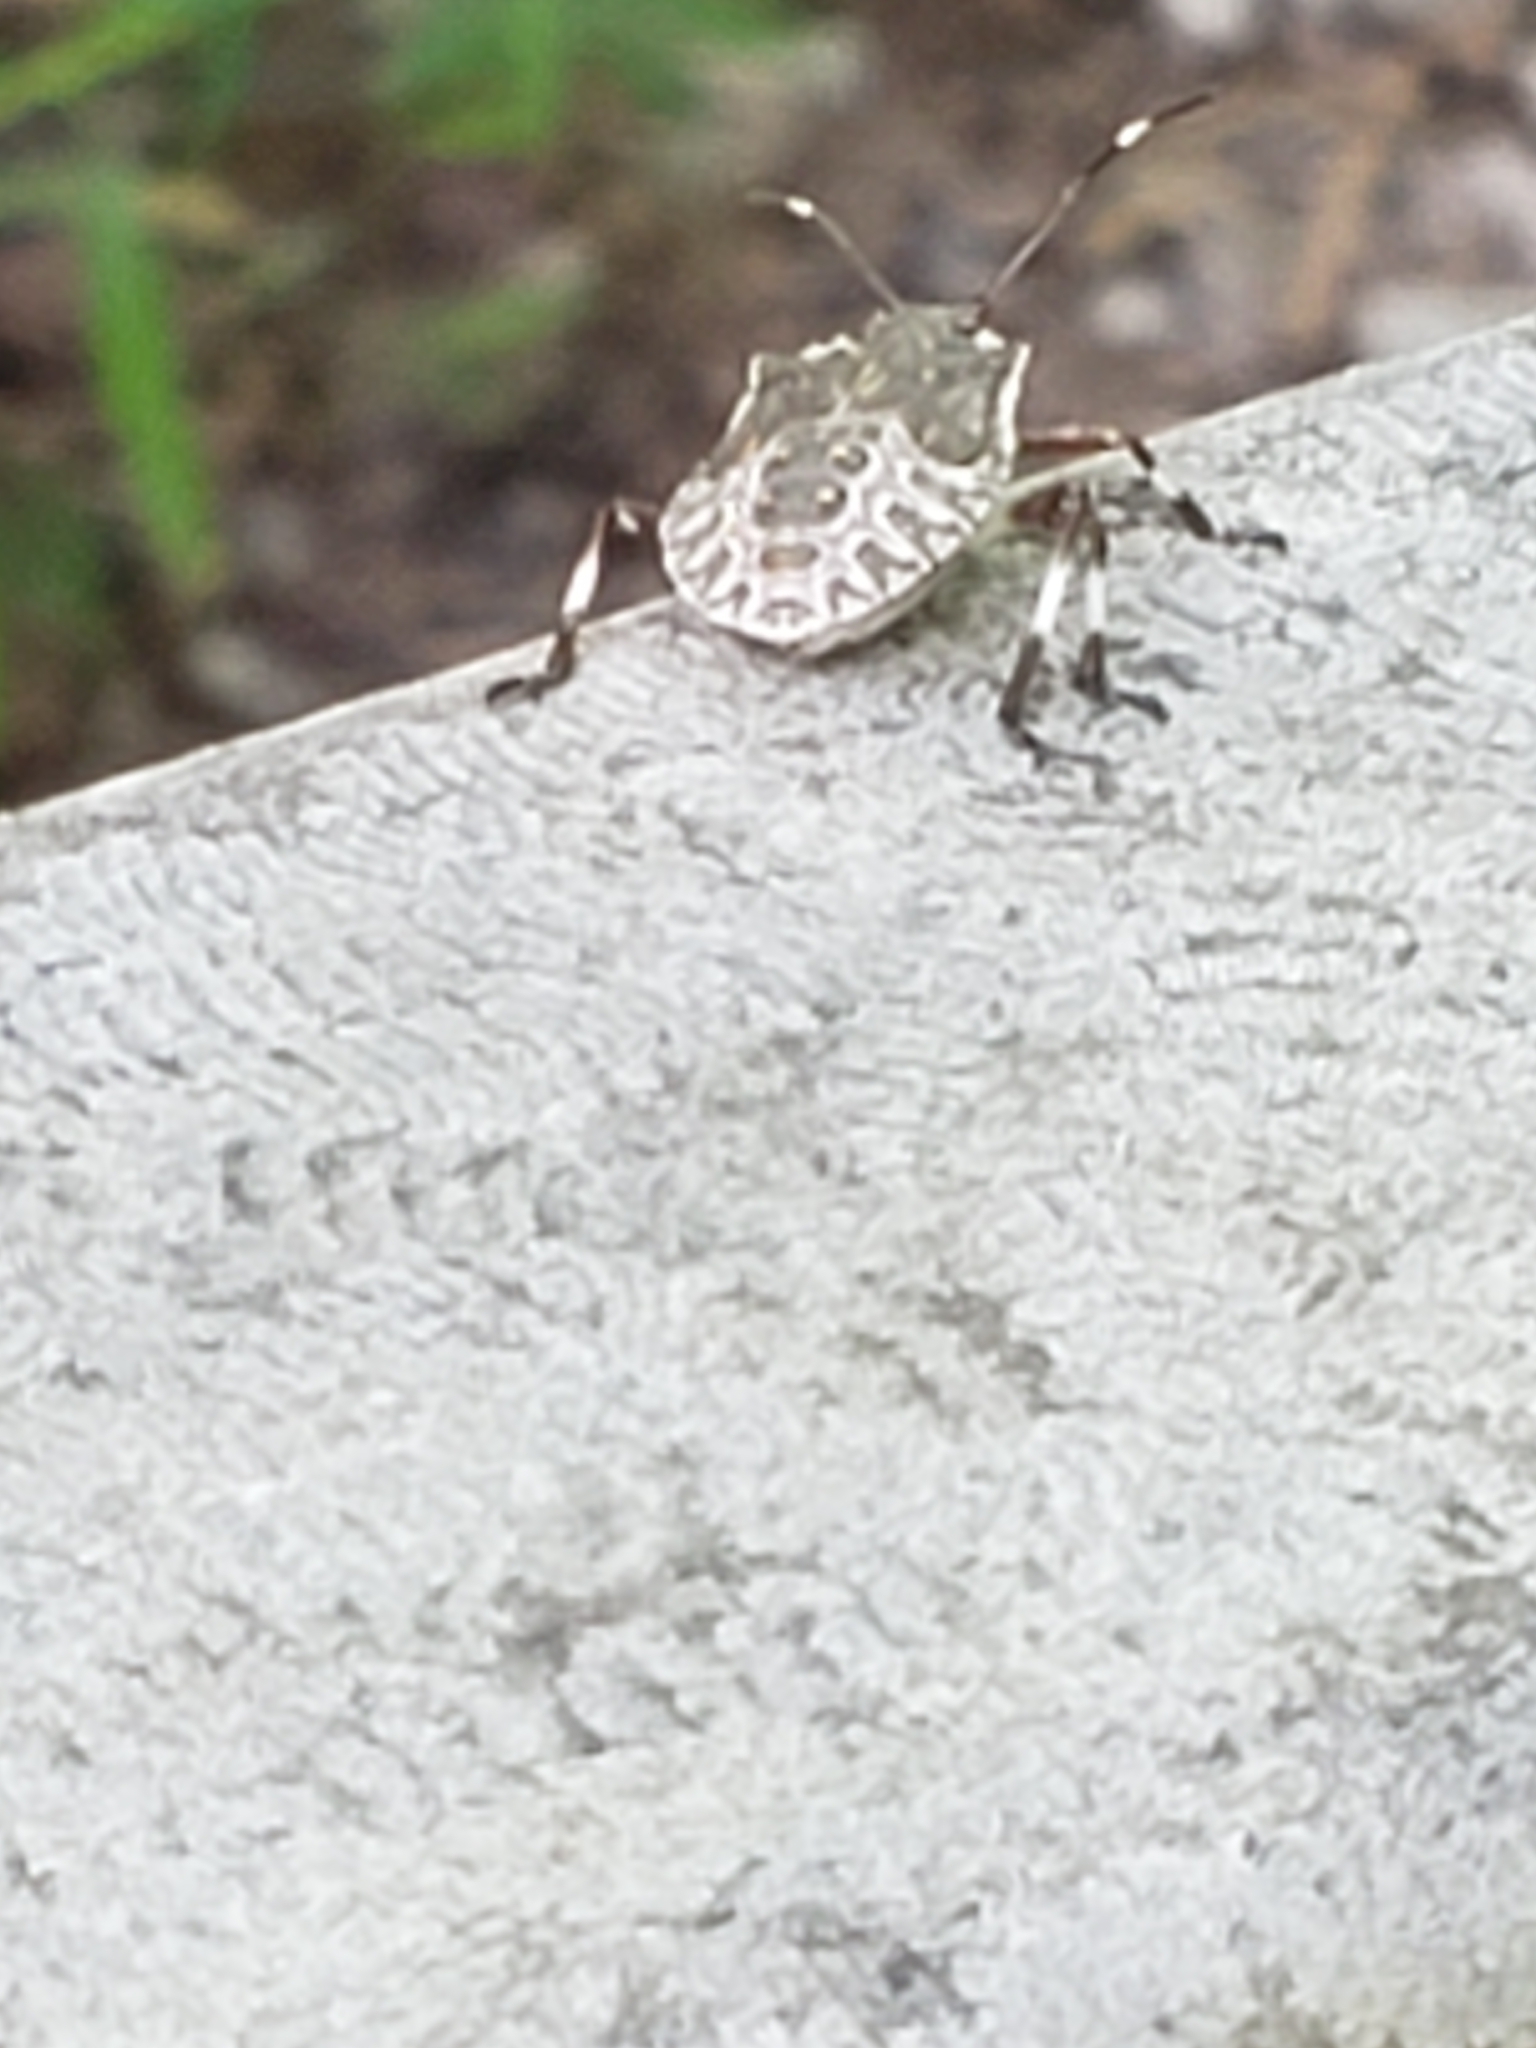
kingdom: Animalia
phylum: Arthropoda
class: Insecta
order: Hemiptera
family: Pentatomidae
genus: Halyomorpha
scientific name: Halyomorpha halys
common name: Brown marmorated stink bug
